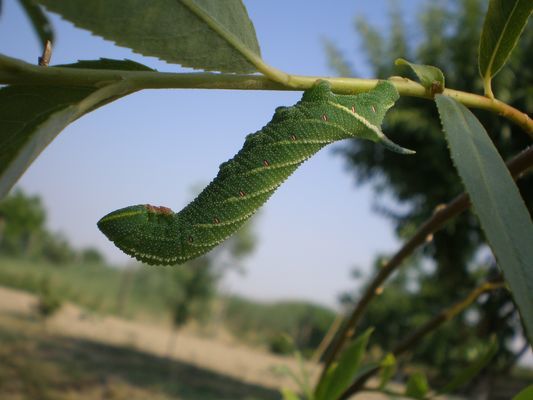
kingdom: Animalia
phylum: Arthropoda
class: Insecta
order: Lepidoptera
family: Sphingidae
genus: Smerinthus
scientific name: Smerinthus ocellata
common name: Eyed hawk-moth
